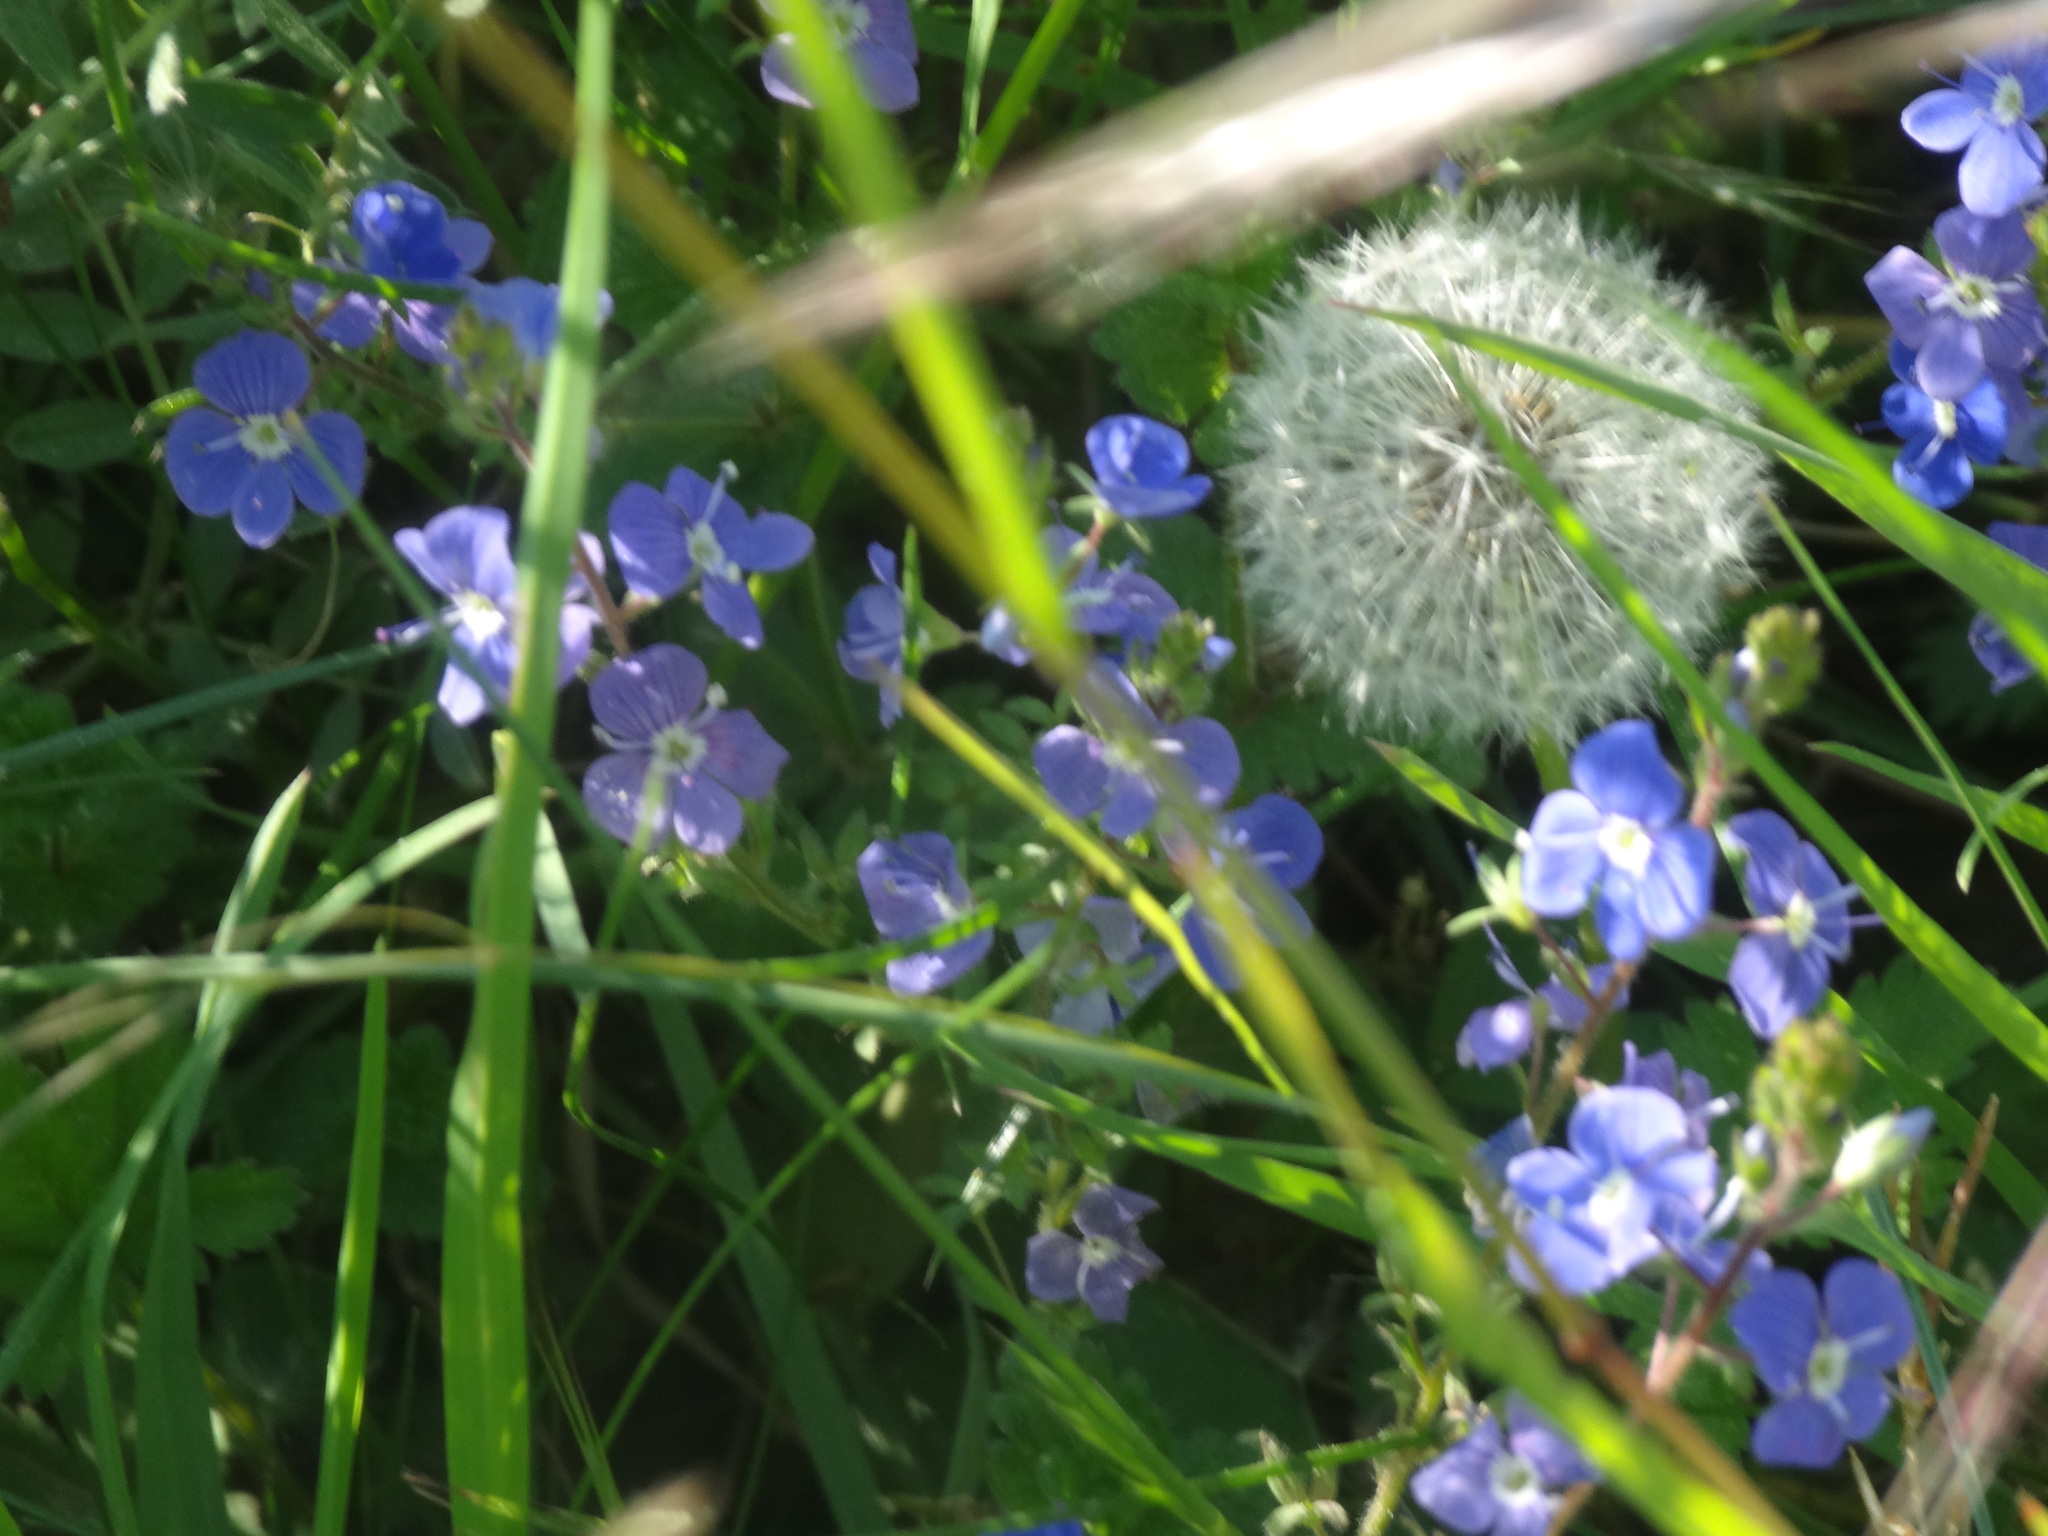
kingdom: Plantae
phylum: Tracheophyta
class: Magnoliopsida
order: Lamiales
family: Plantaginaceae
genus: Veronica
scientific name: Veronica chamaedrys
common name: Germander speedwell
